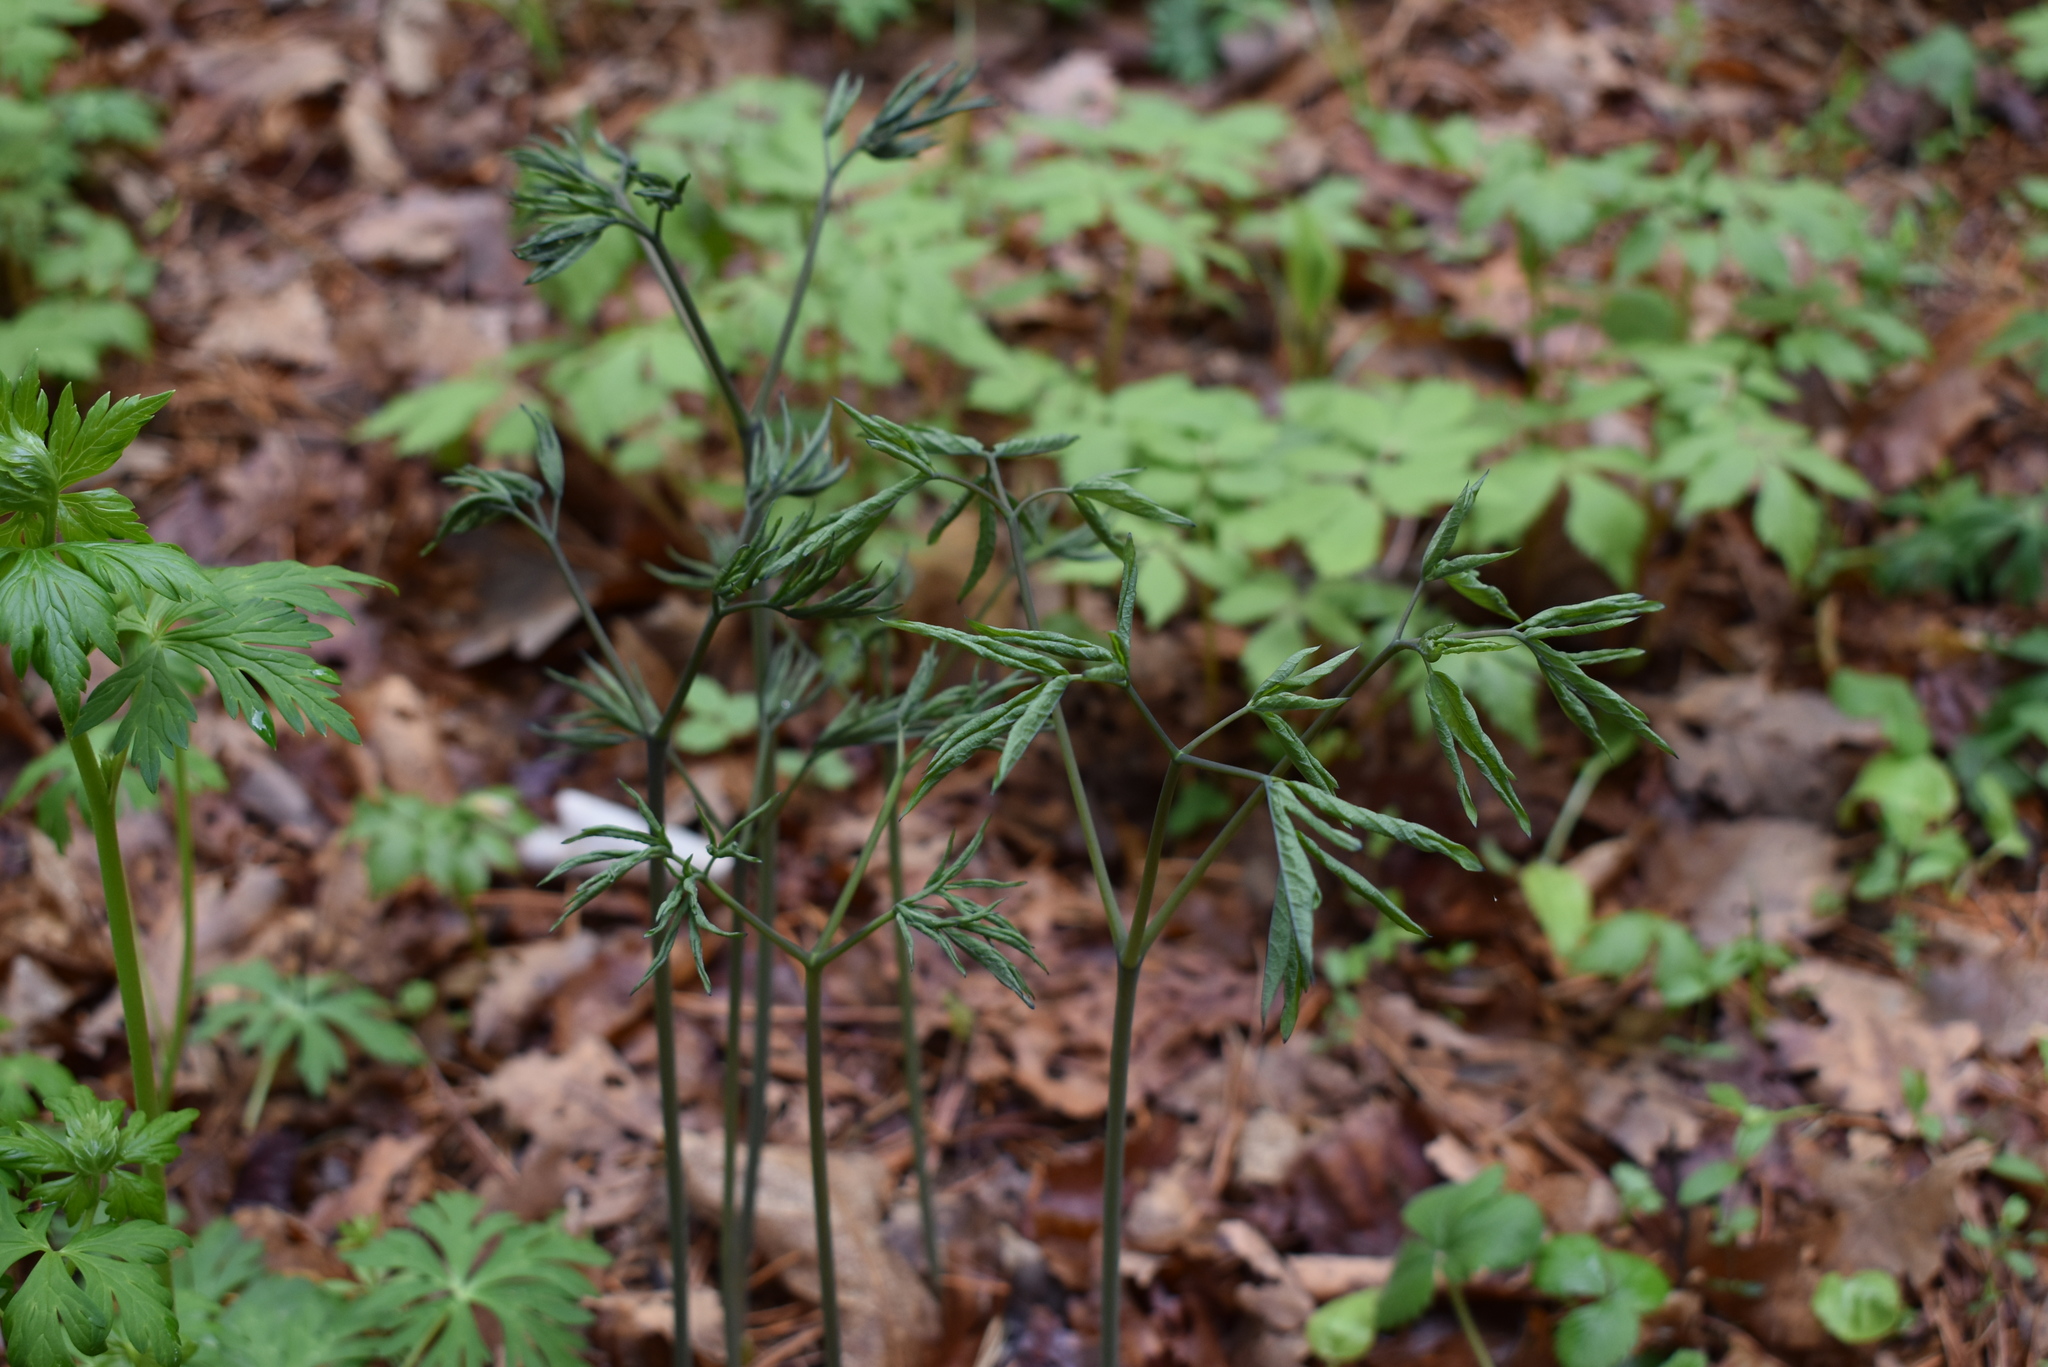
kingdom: Plantae
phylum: Tracheophyta
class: Magnoliopsida
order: Ranunculales
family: Berberidaceae
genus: Caulophyllum
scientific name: Caulophyllum robustum
